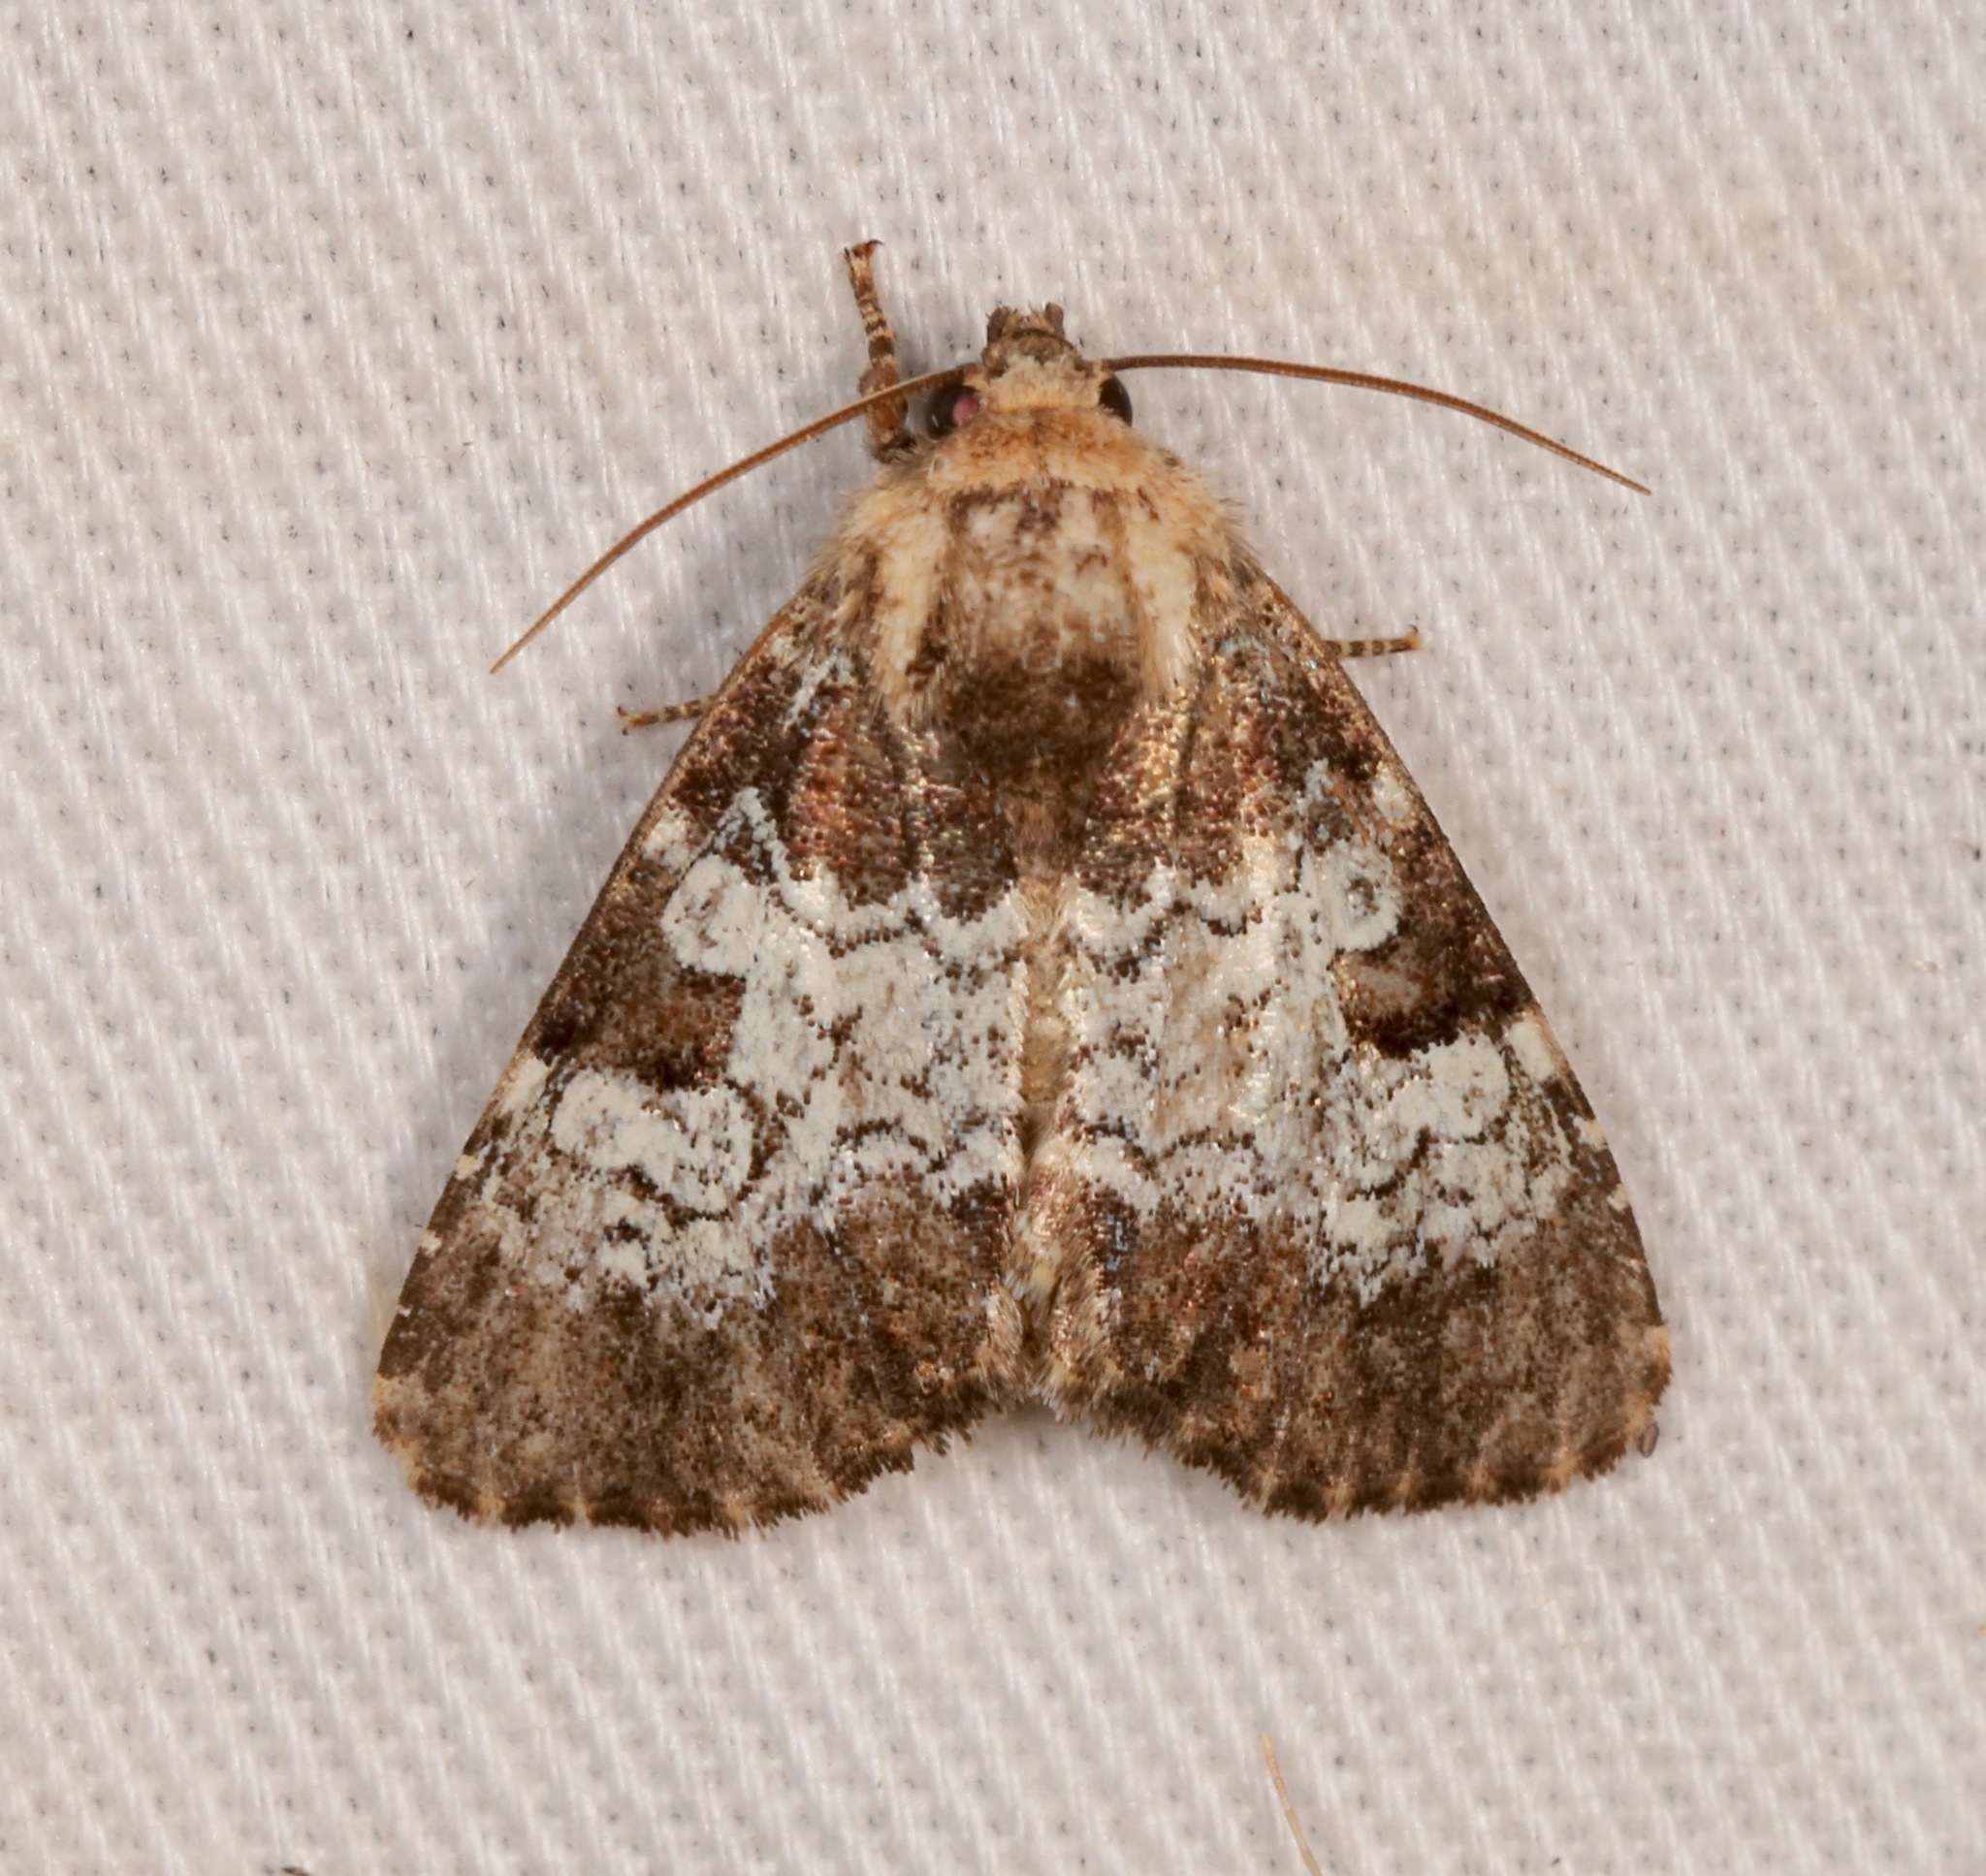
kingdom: Animalia
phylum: Arthropoda
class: Insecta
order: Lepidoptera
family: Noctuidae
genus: Euamiana
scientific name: Euamiana contrasta
